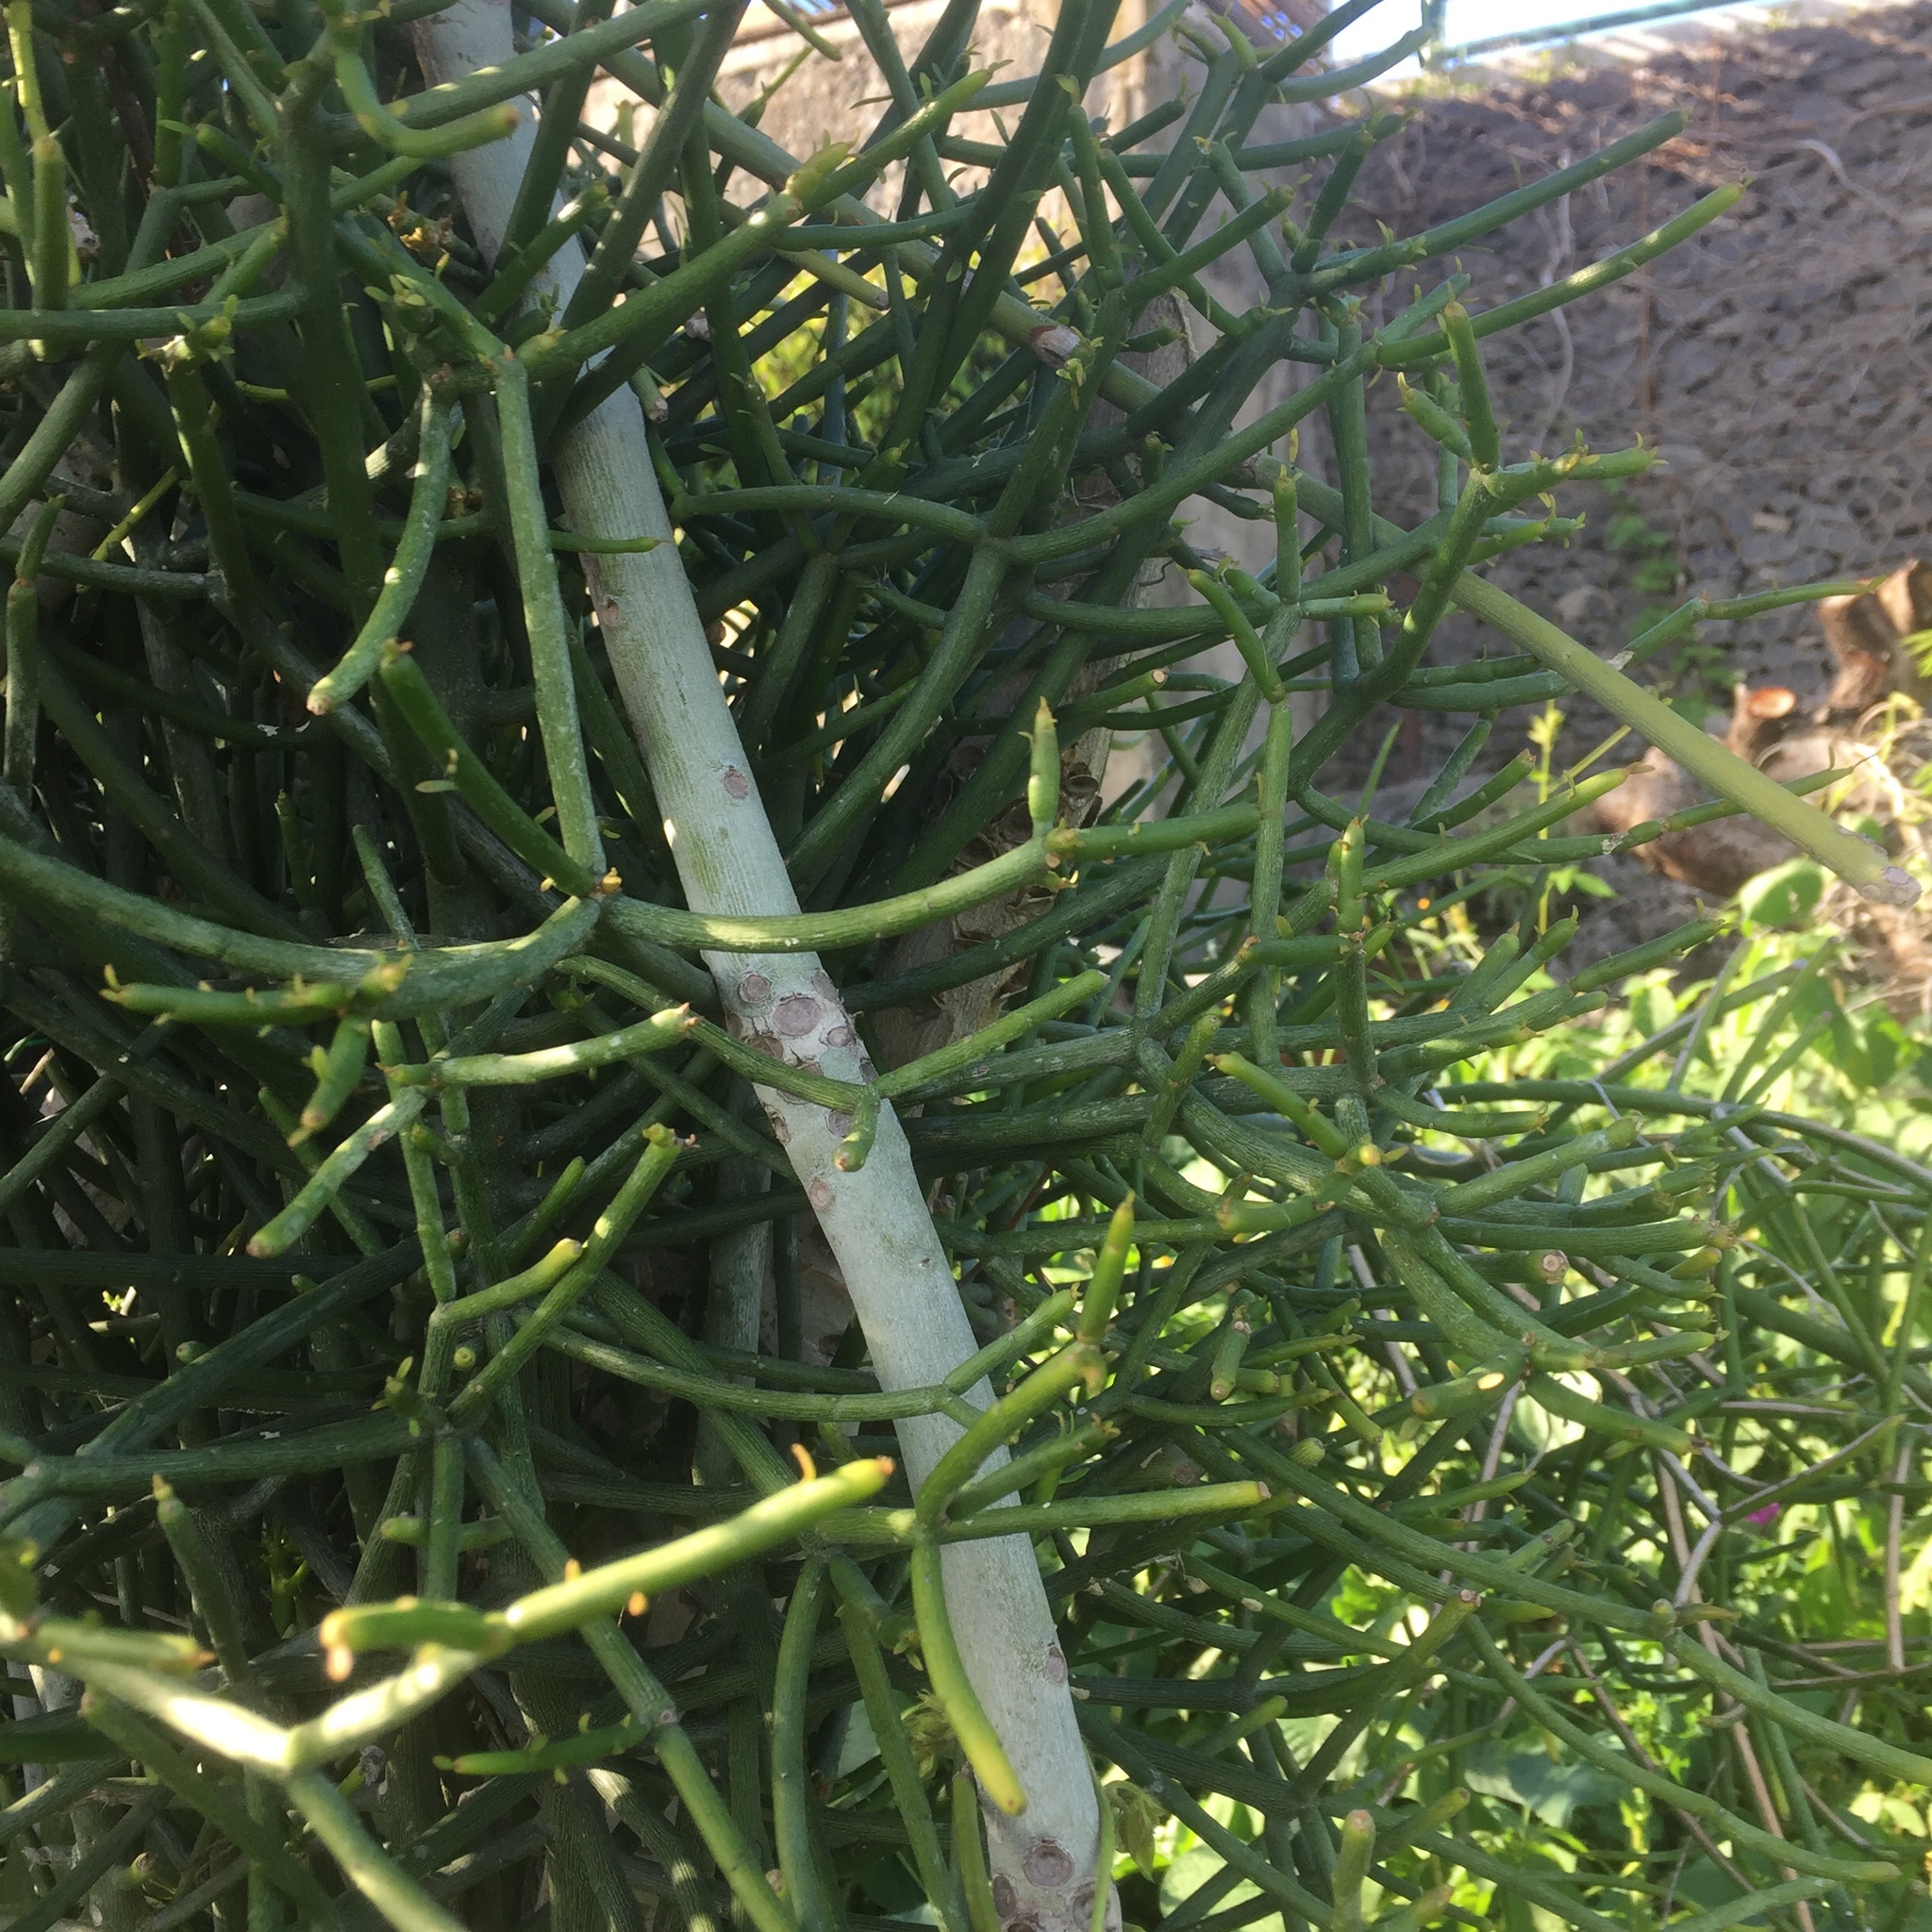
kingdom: Plantae
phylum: Tracheophyta
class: Magnoliopsida
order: Malpighiales
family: Euphorbiaceae
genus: Euphorbia
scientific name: Euphorbia tirucalli
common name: Indiantree spurge
